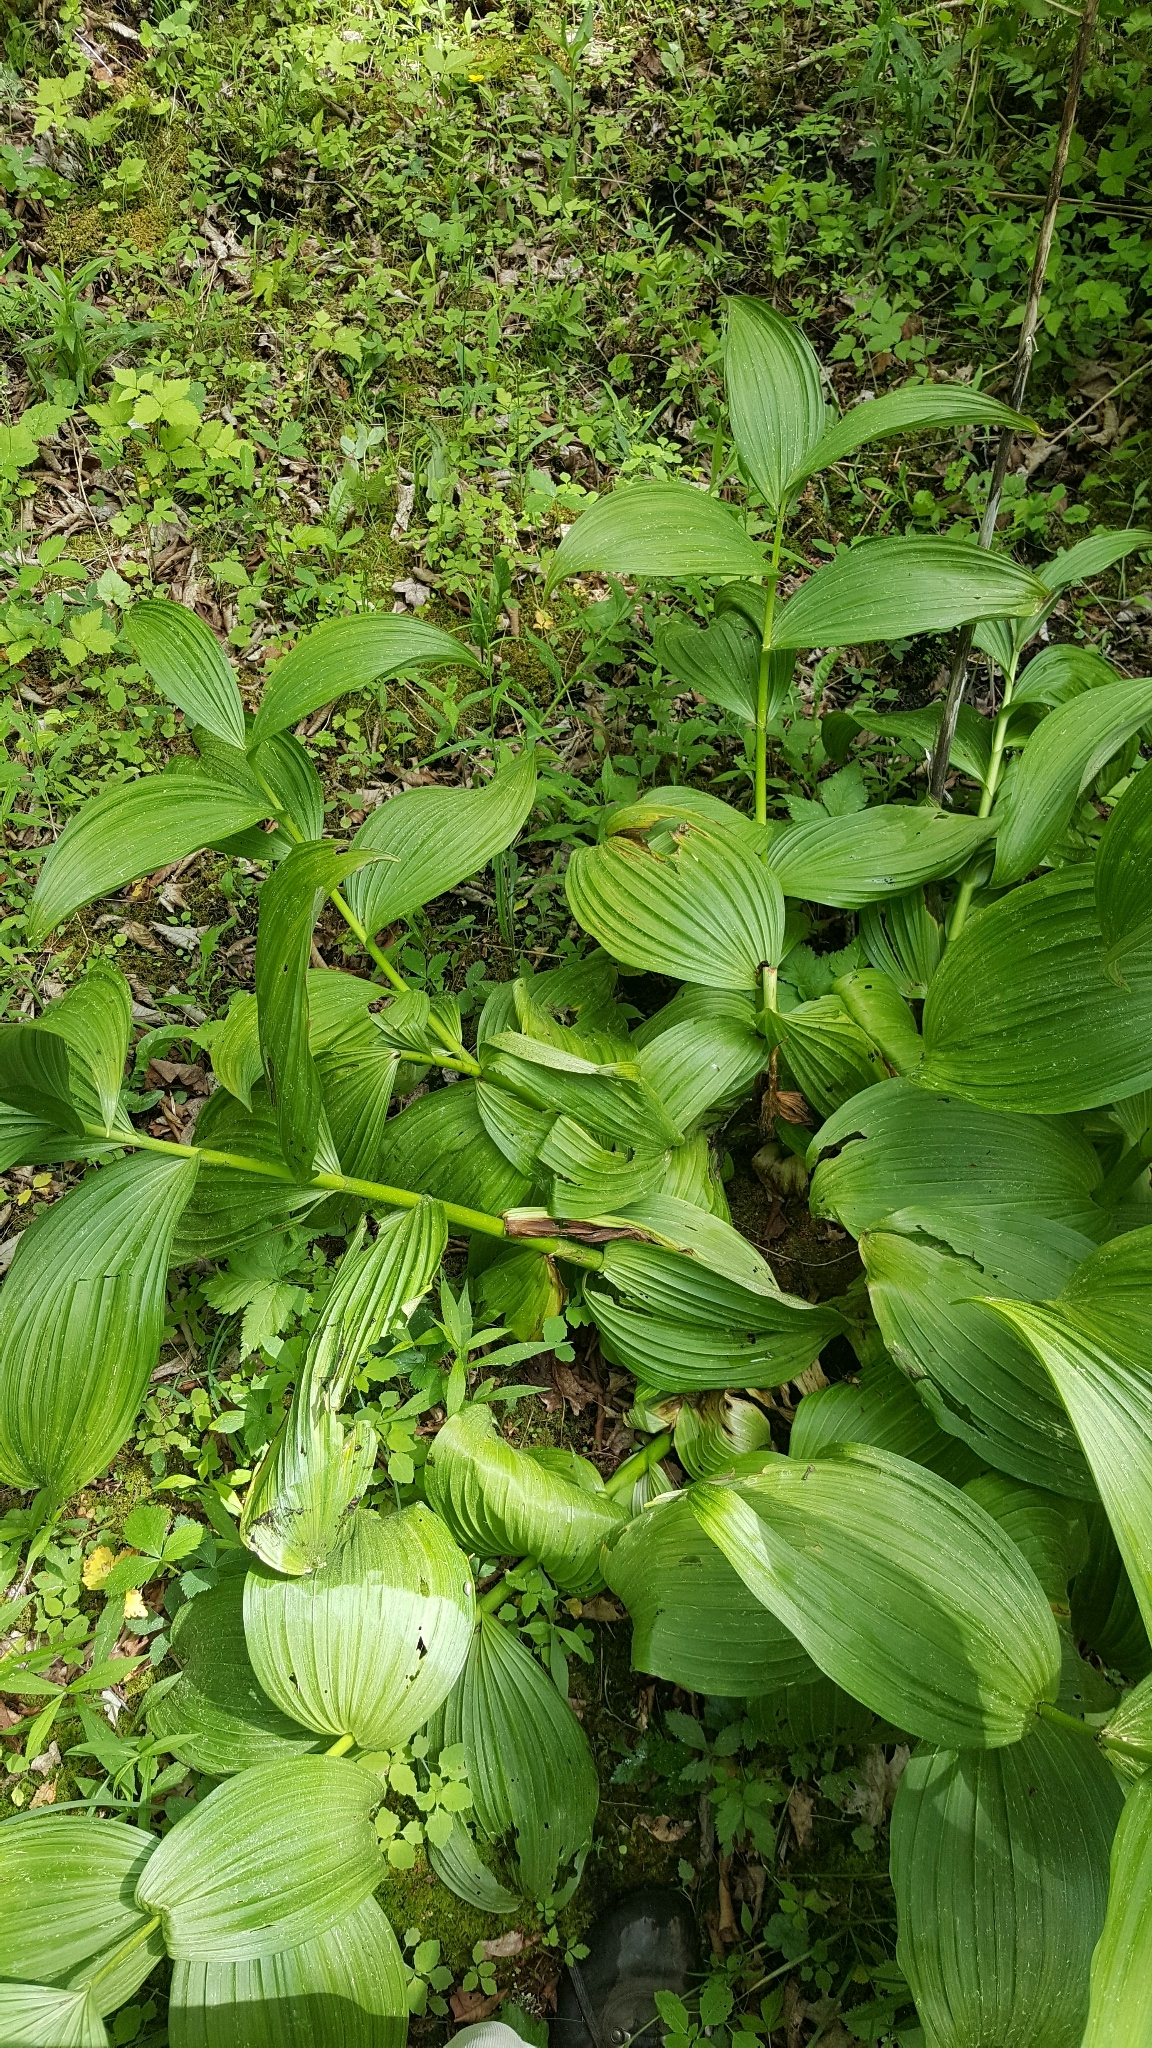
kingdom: Plantae
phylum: Tracheophyta
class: Liliopsida
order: Liliales
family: Melanthiaceae
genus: Veratrum
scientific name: Veratrum viride
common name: American false hellebore
